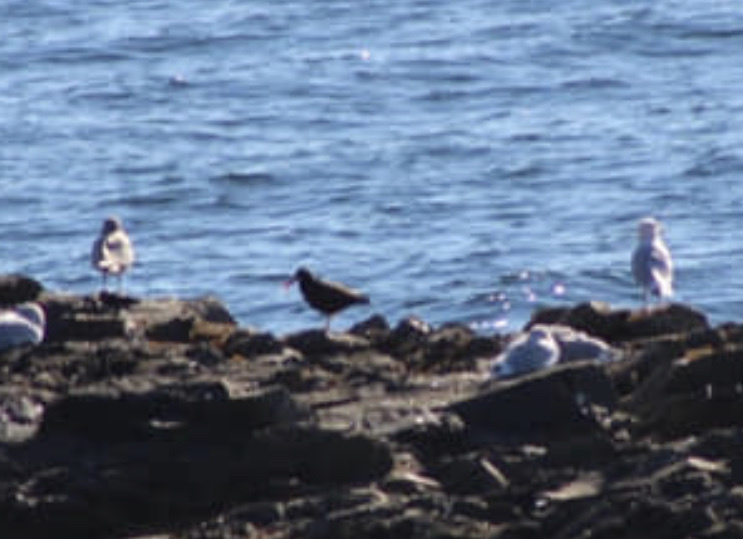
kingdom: Animalia
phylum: Chordata
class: Aves
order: Charadriiformes
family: Haematopodidae
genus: Haematopus
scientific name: Haematopus bachmani
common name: Black oystercatcher
